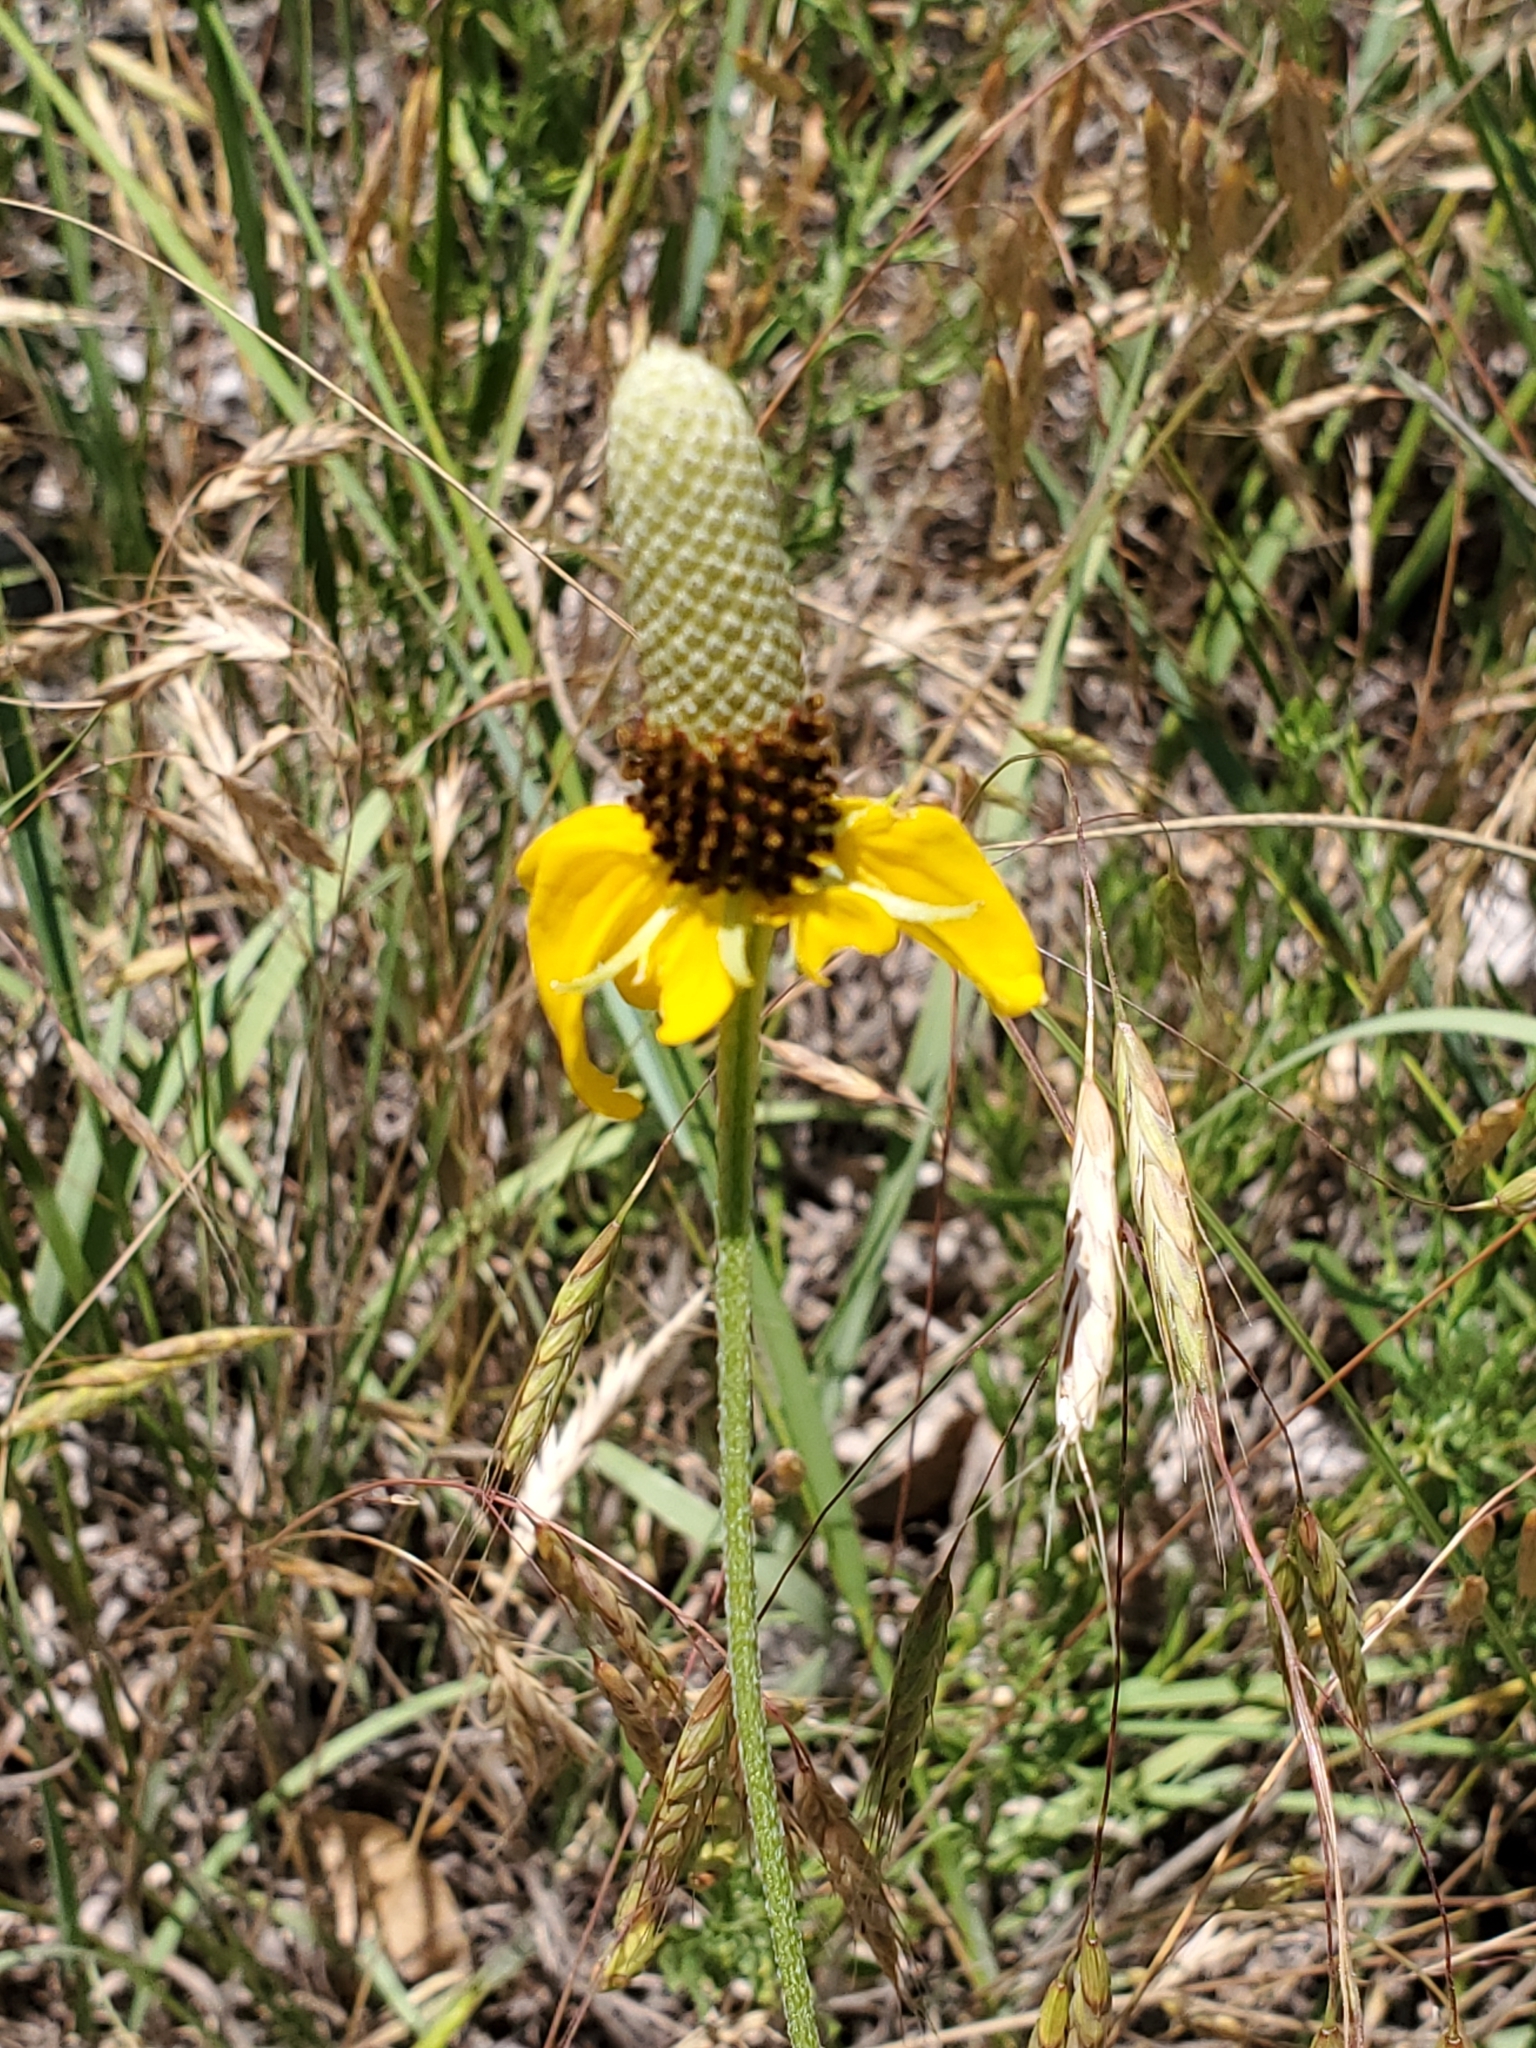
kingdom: Plantae
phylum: Tracheophyta
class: Magnoliopsida
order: Asterales
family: Asteraceae
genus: Ratibida
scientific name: Ratibida columnifera
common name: Prairie coneflower
